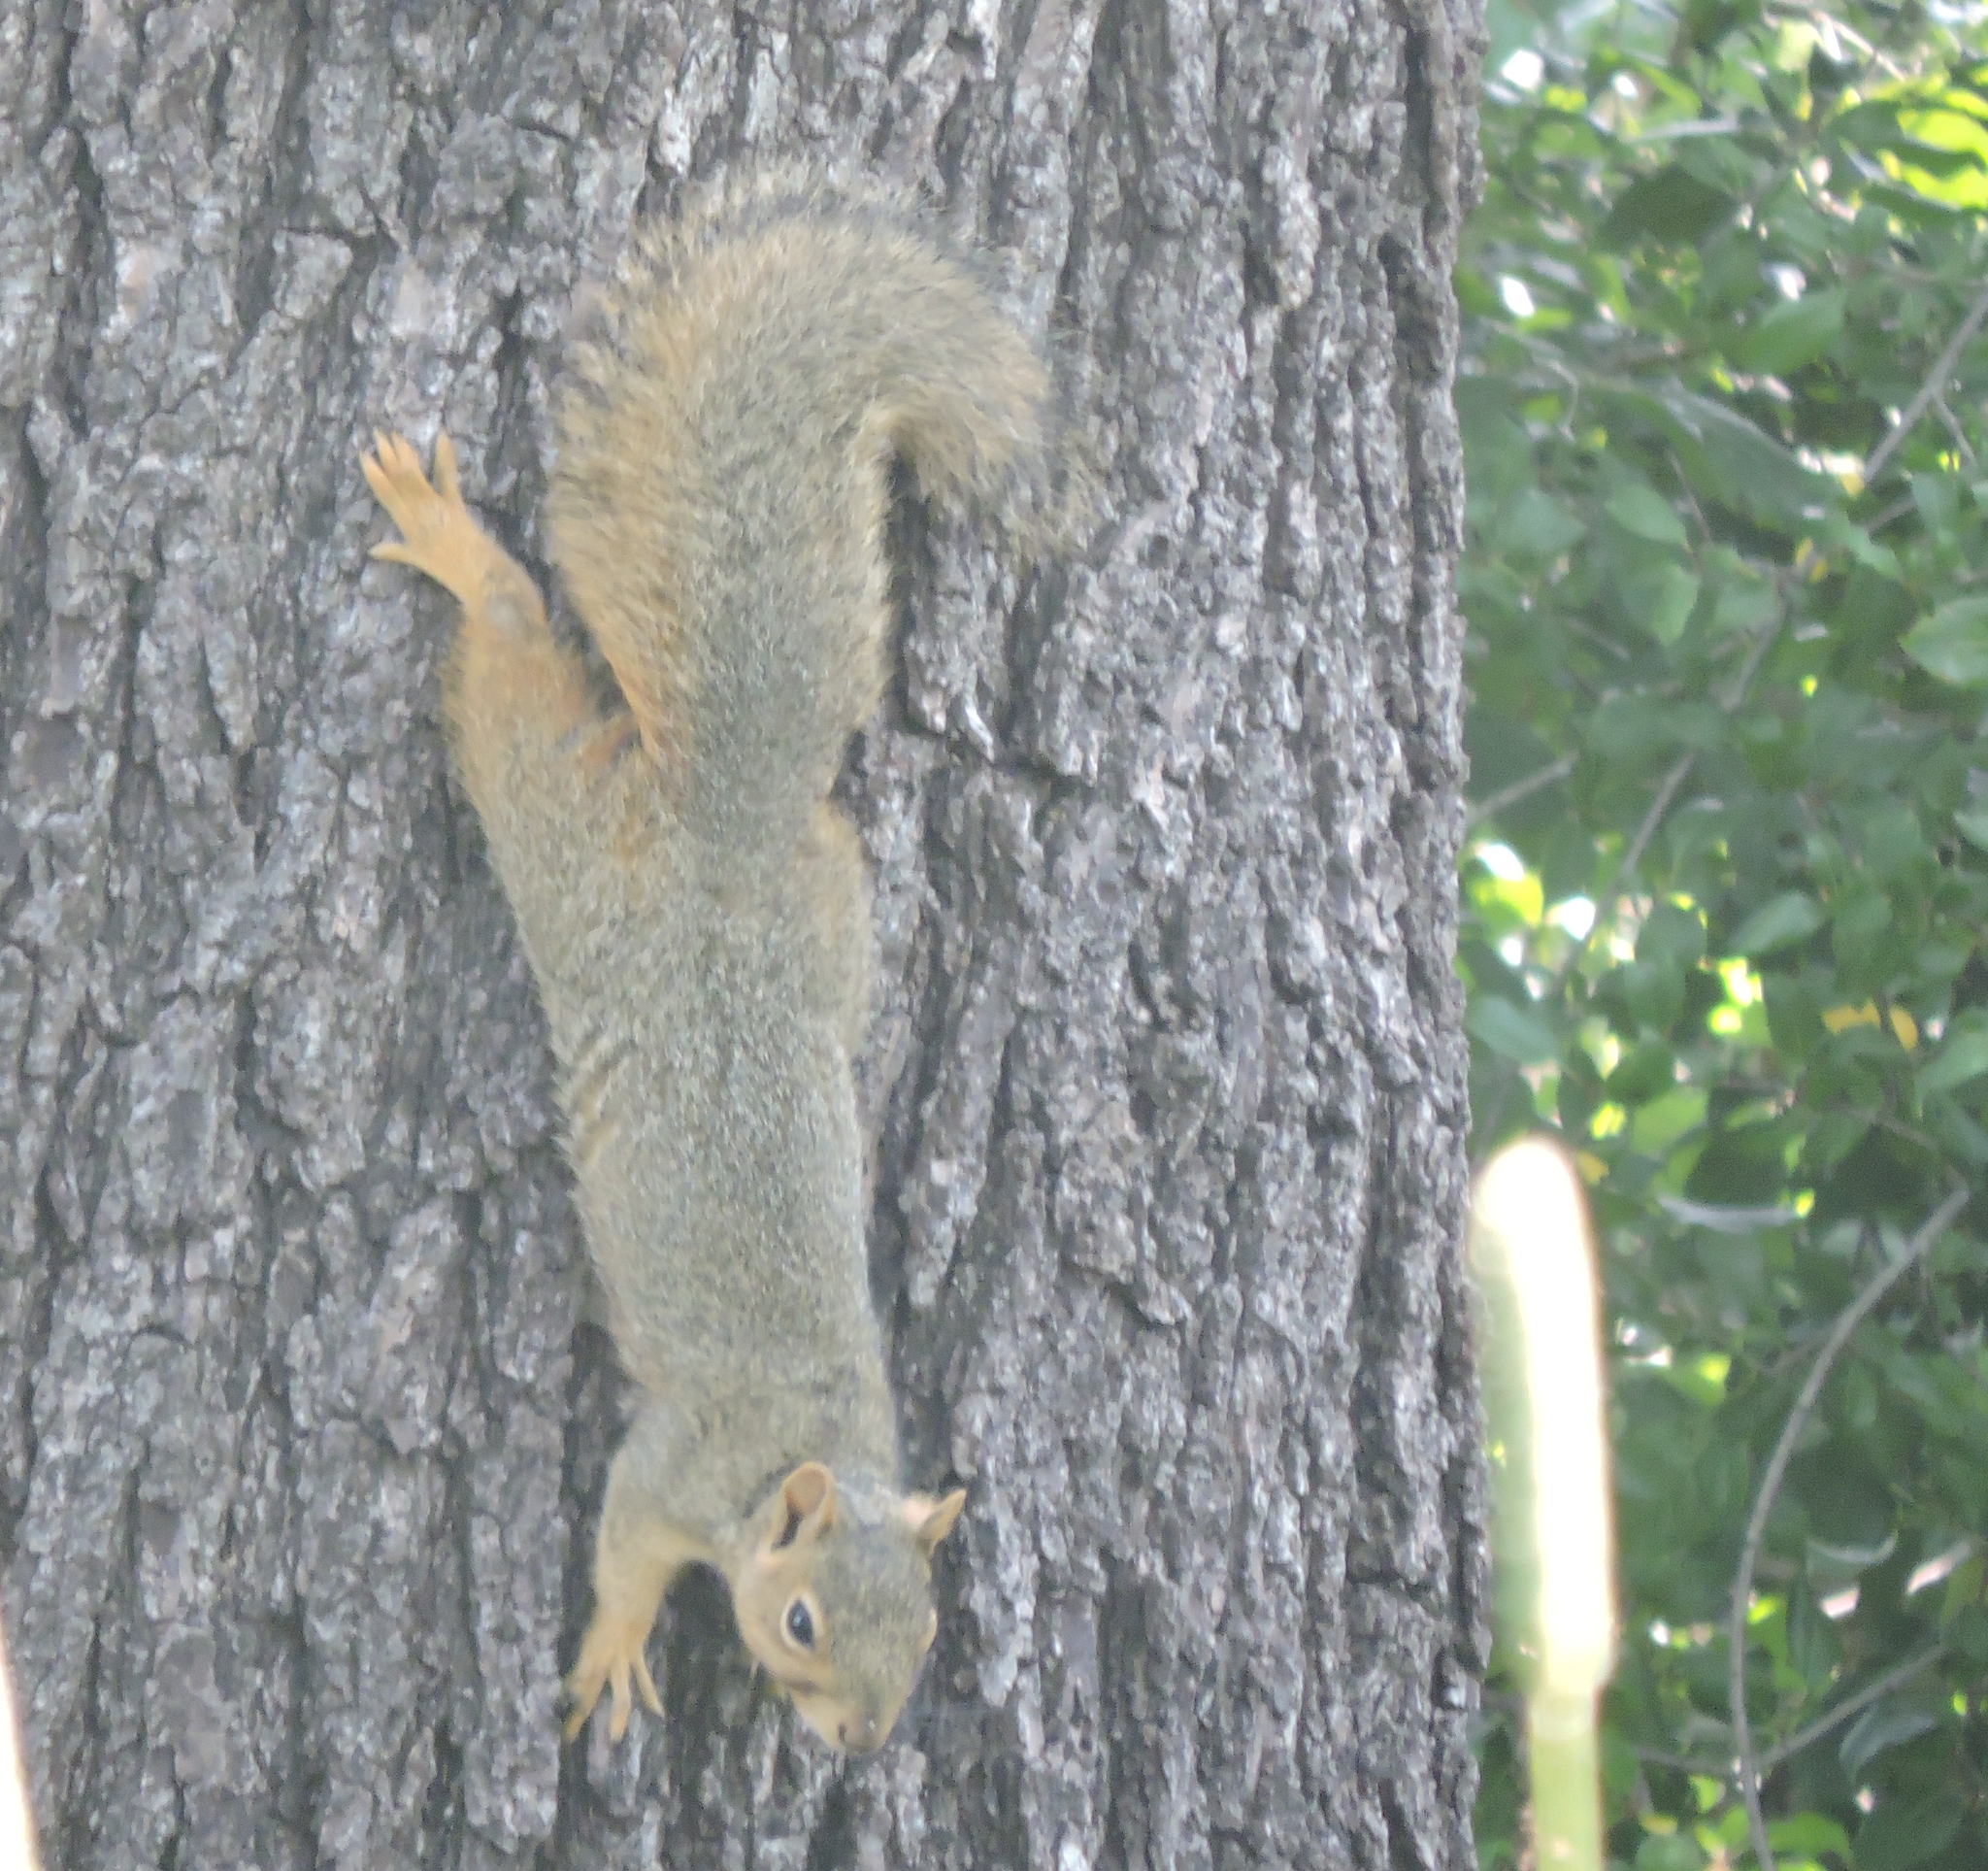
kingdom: Animalia
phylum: Chordata
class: Mammalia
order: Rodentia
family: Sciuridae
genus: Sciurus
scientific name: Sciurus niger
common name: Fox squirrel
